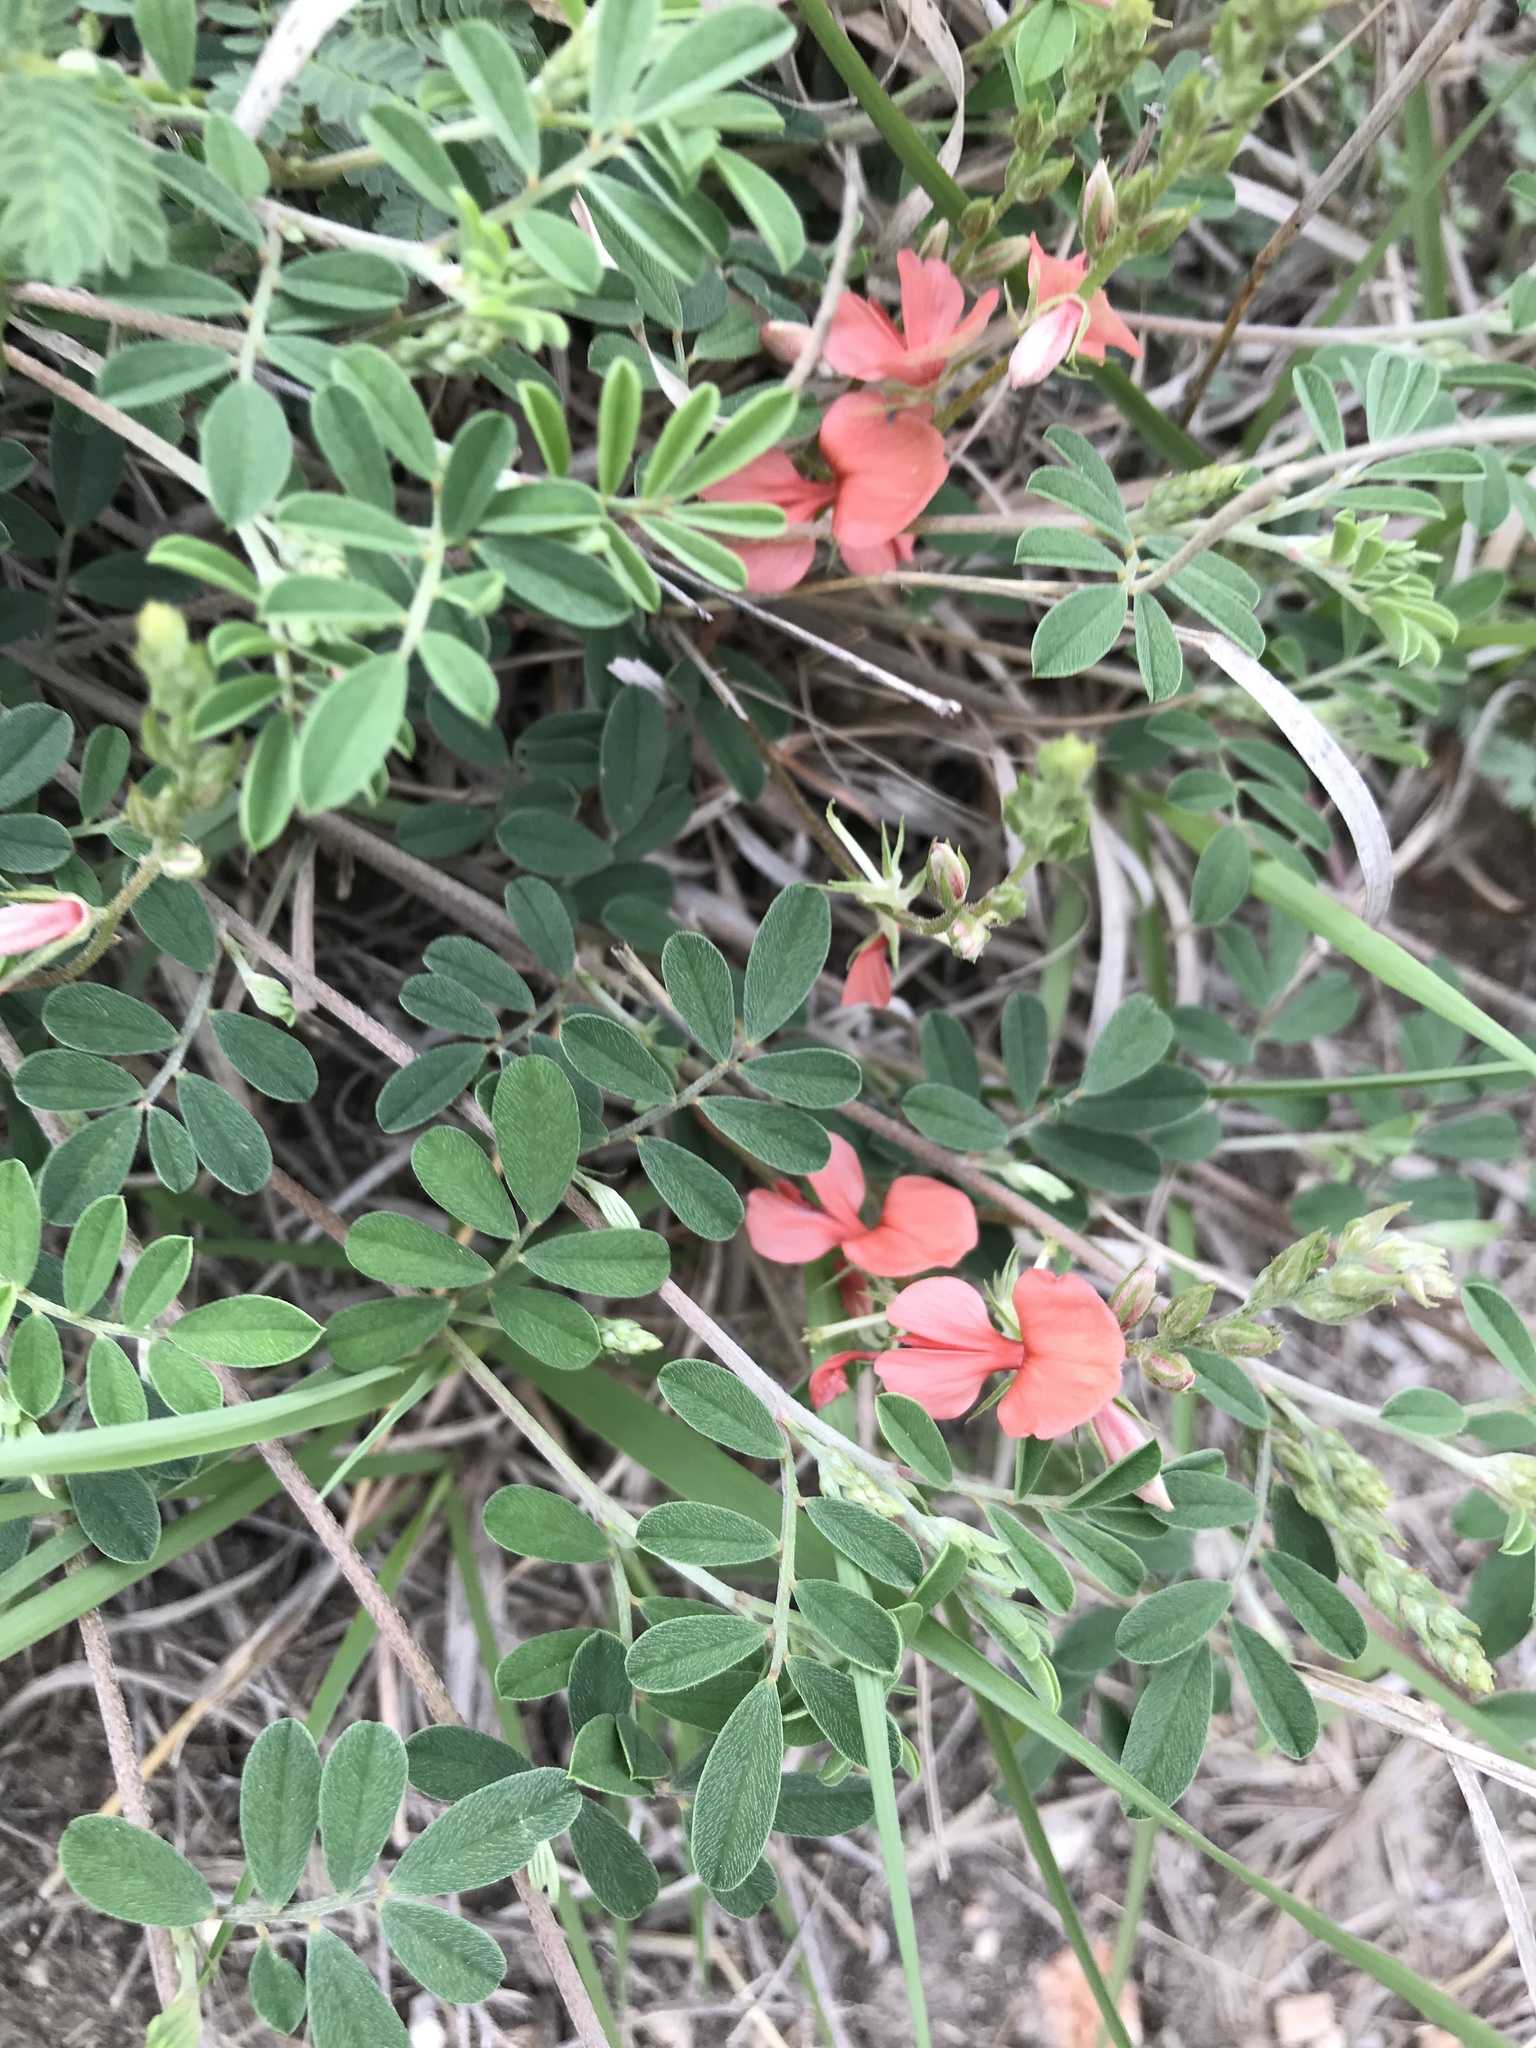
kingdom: Plantae
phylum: Tracheophyta
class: Magnoliopsida
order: Fabales
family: Fabaceae
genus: Indigofera
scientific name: Indigofera miniata
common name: Coast indigo
